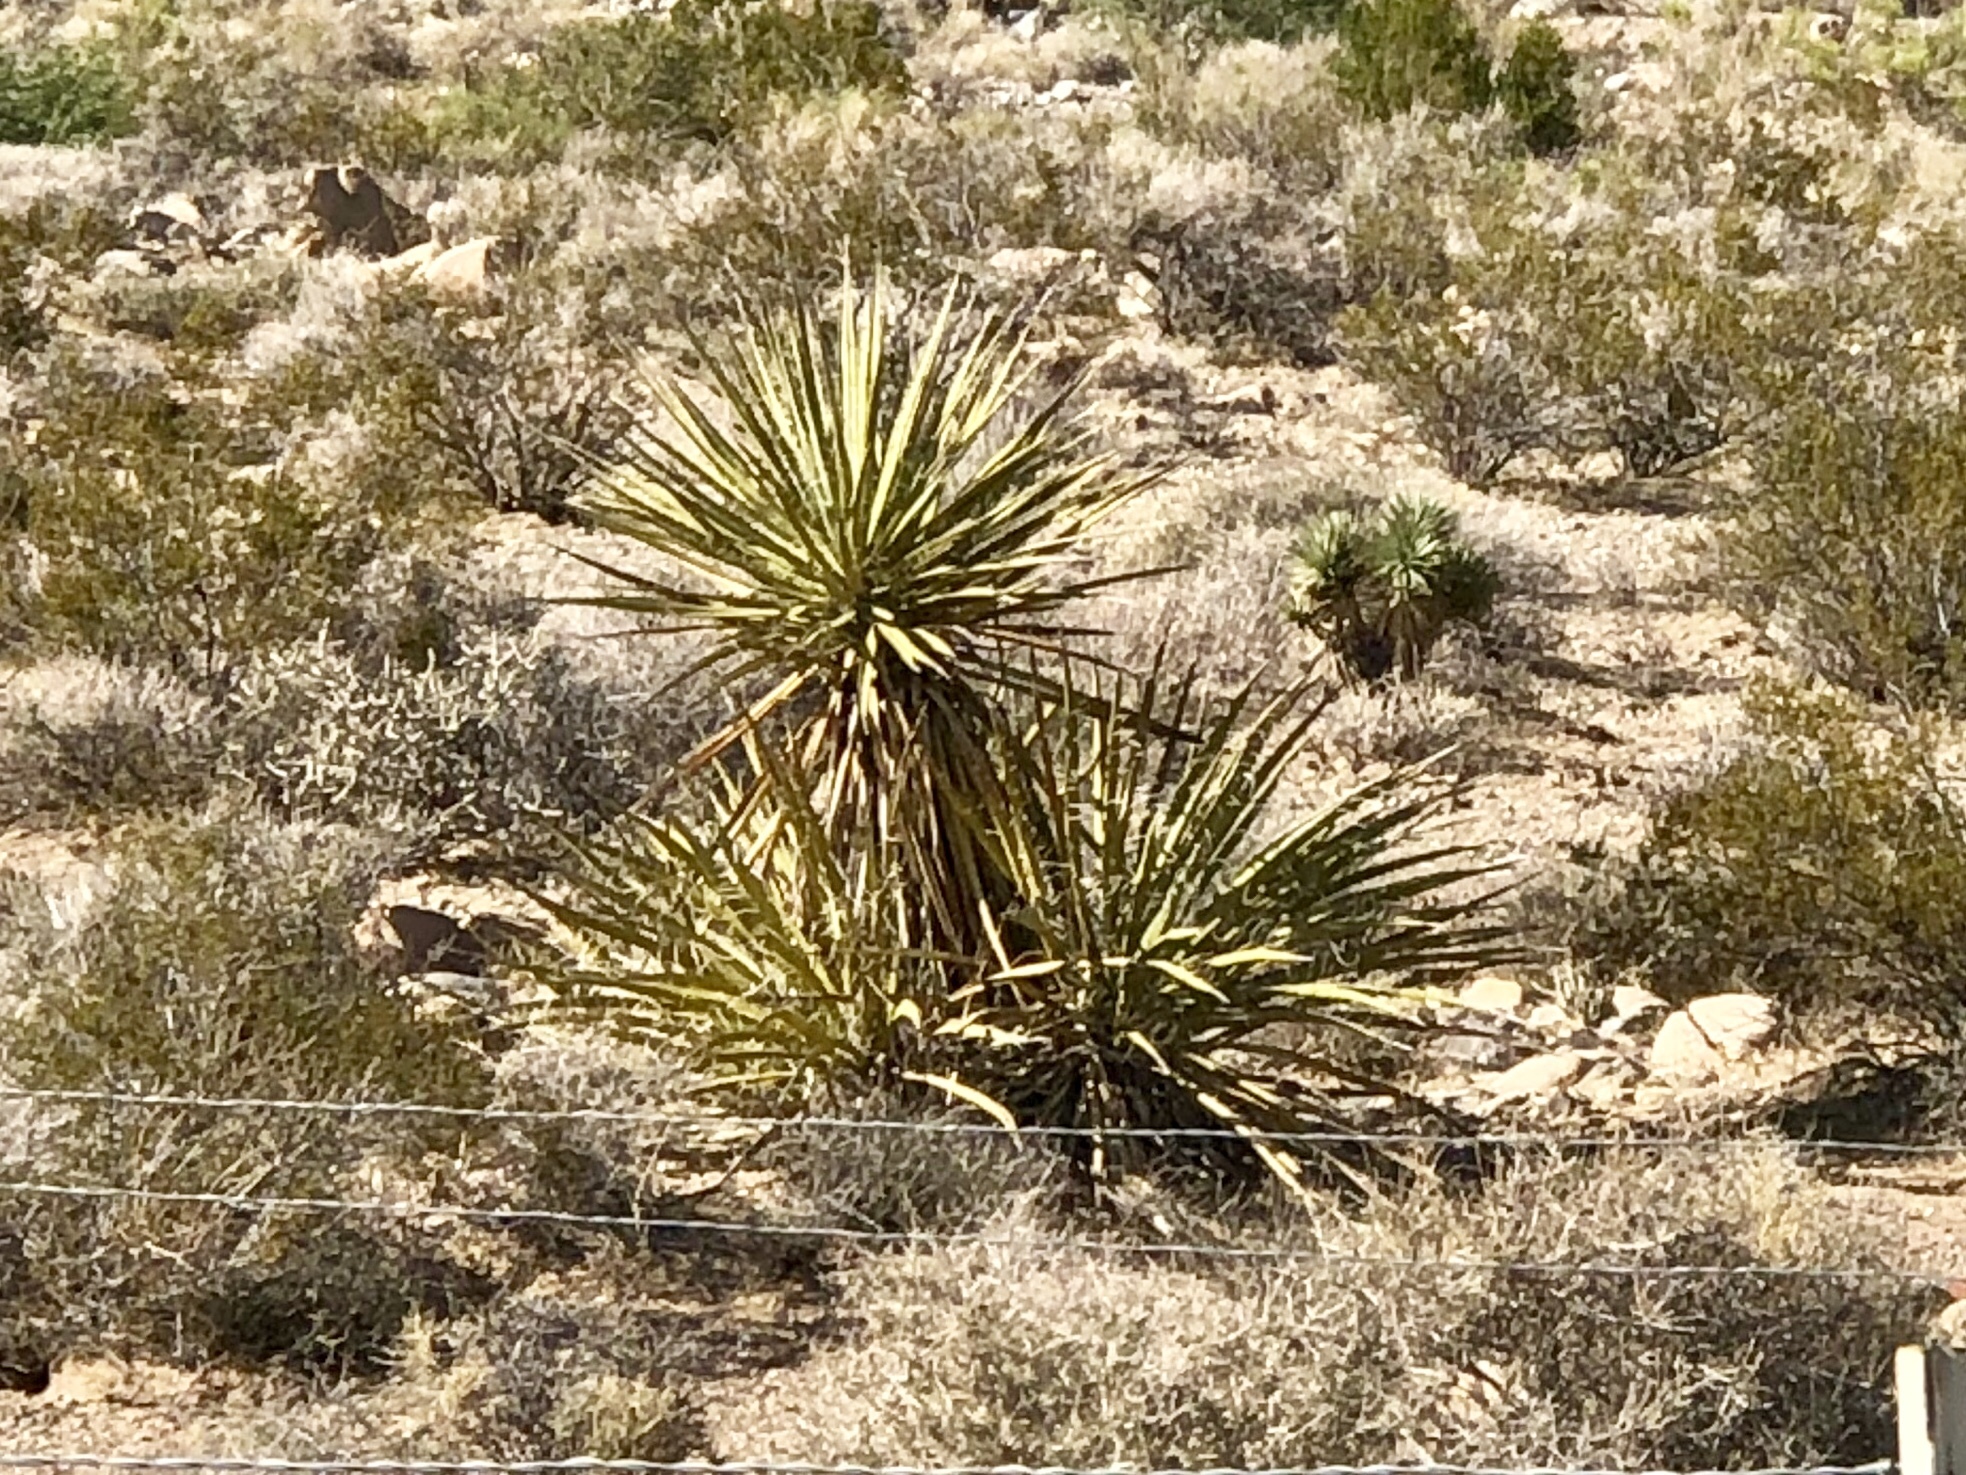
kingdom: Plantae
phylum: Tracheophyta
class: Liliopsida
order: Asparagales
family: Asparagaceae
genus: Yucca
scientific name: Yucca schidigera
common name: Mojave yucca
